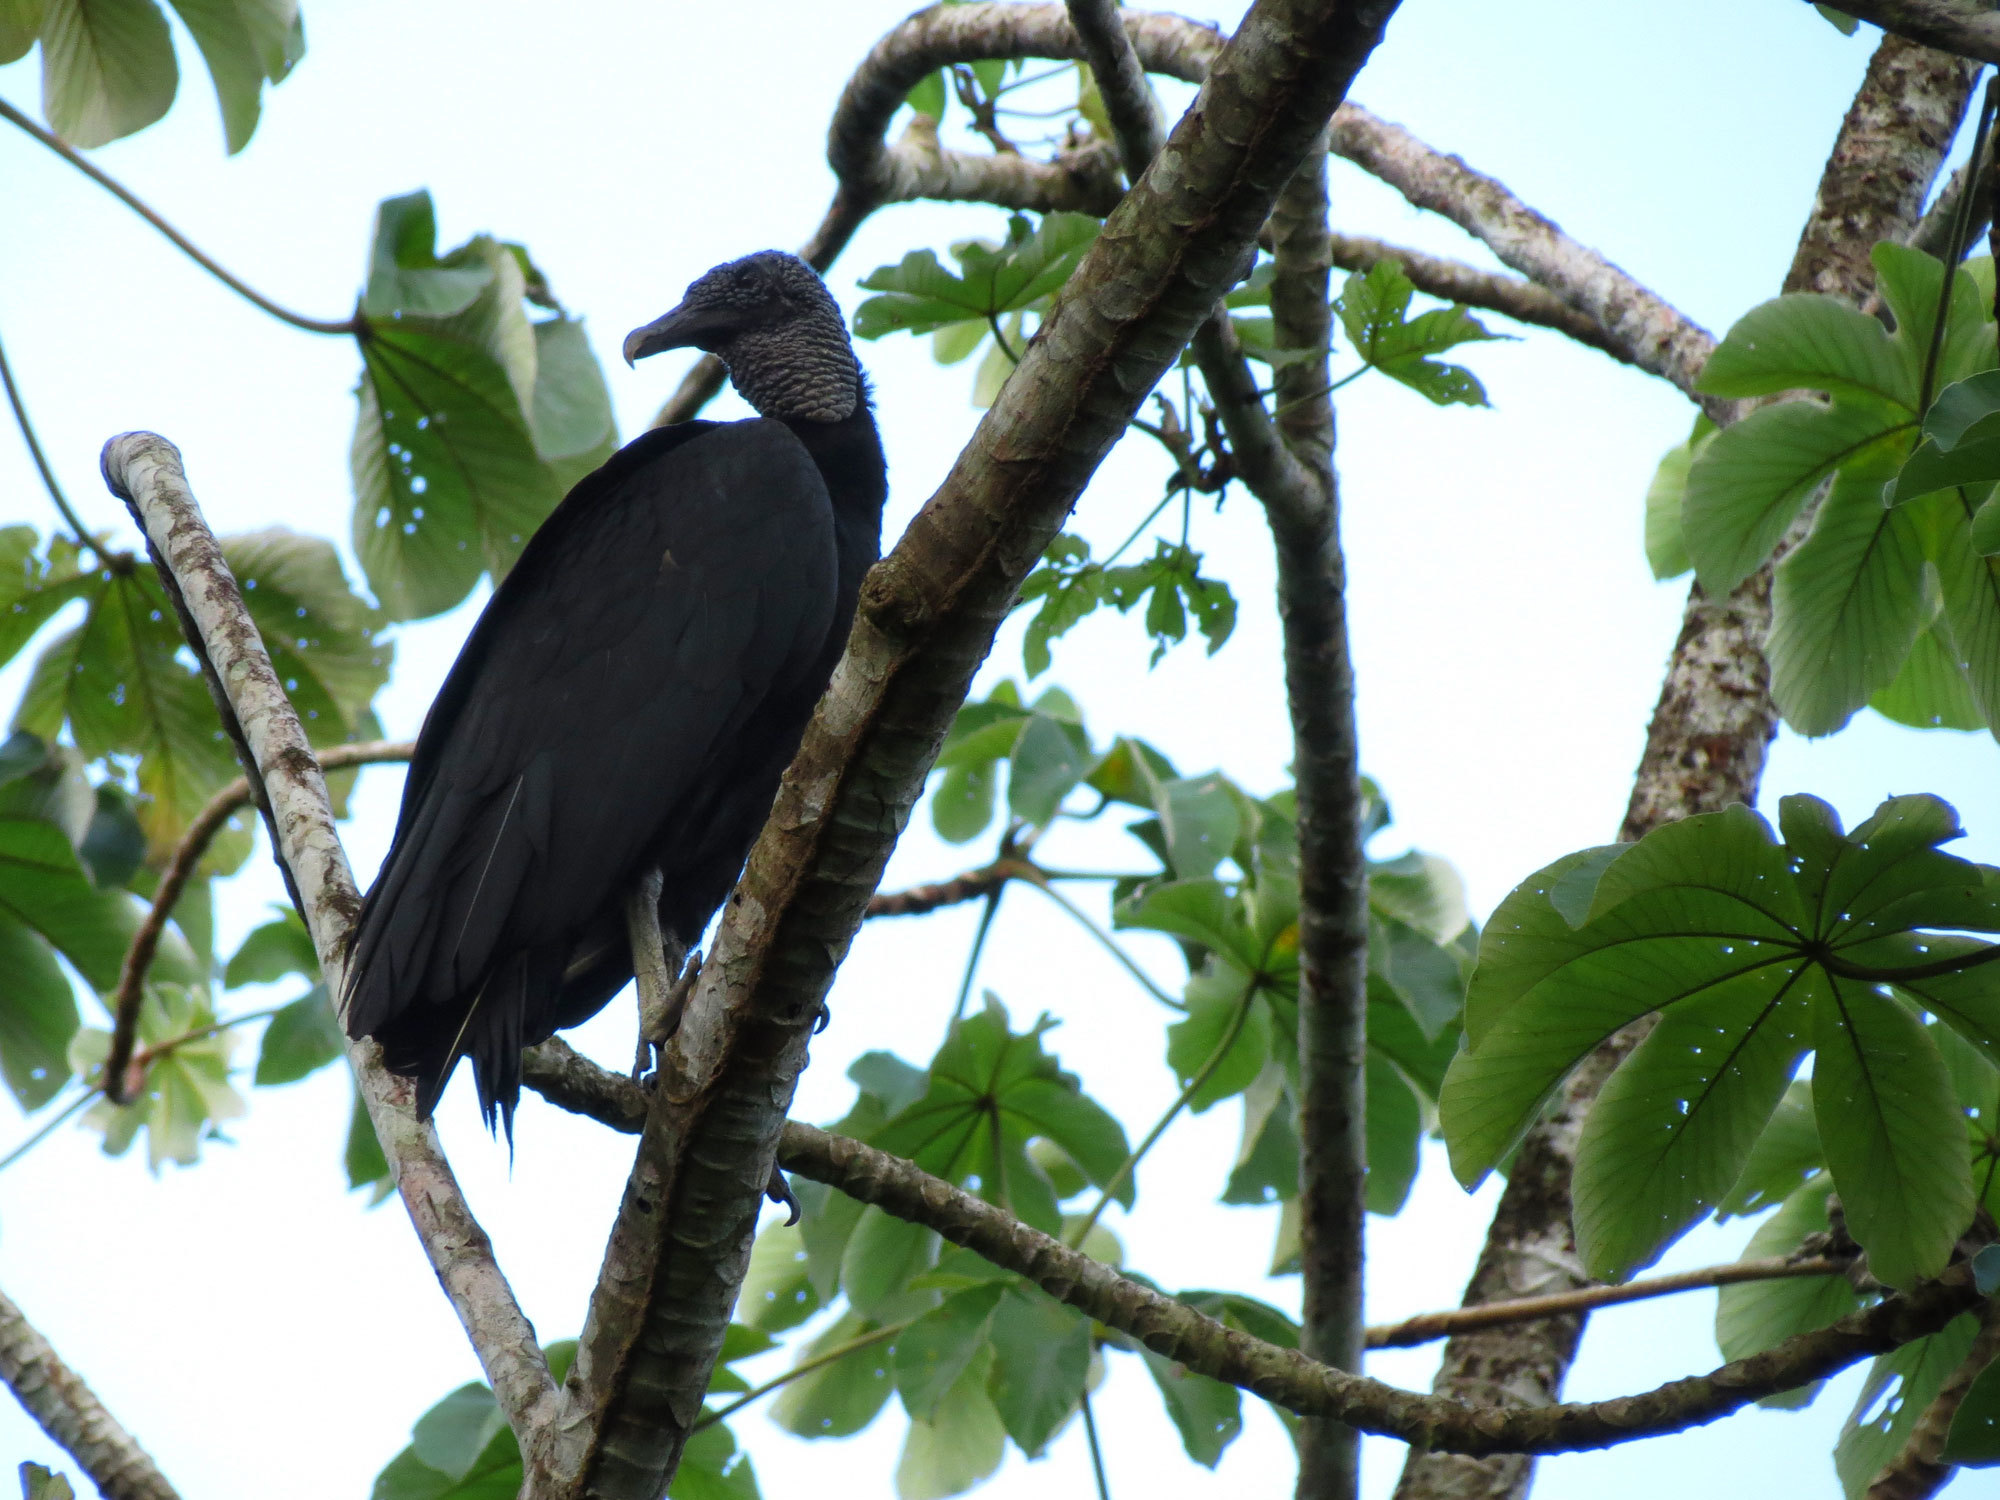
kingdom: Animalia
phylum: Chordata
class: Aves
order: Accipitriformes
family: Cathartidae
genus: Coragyps
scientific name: Coragyps atratus
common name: Black vulture
